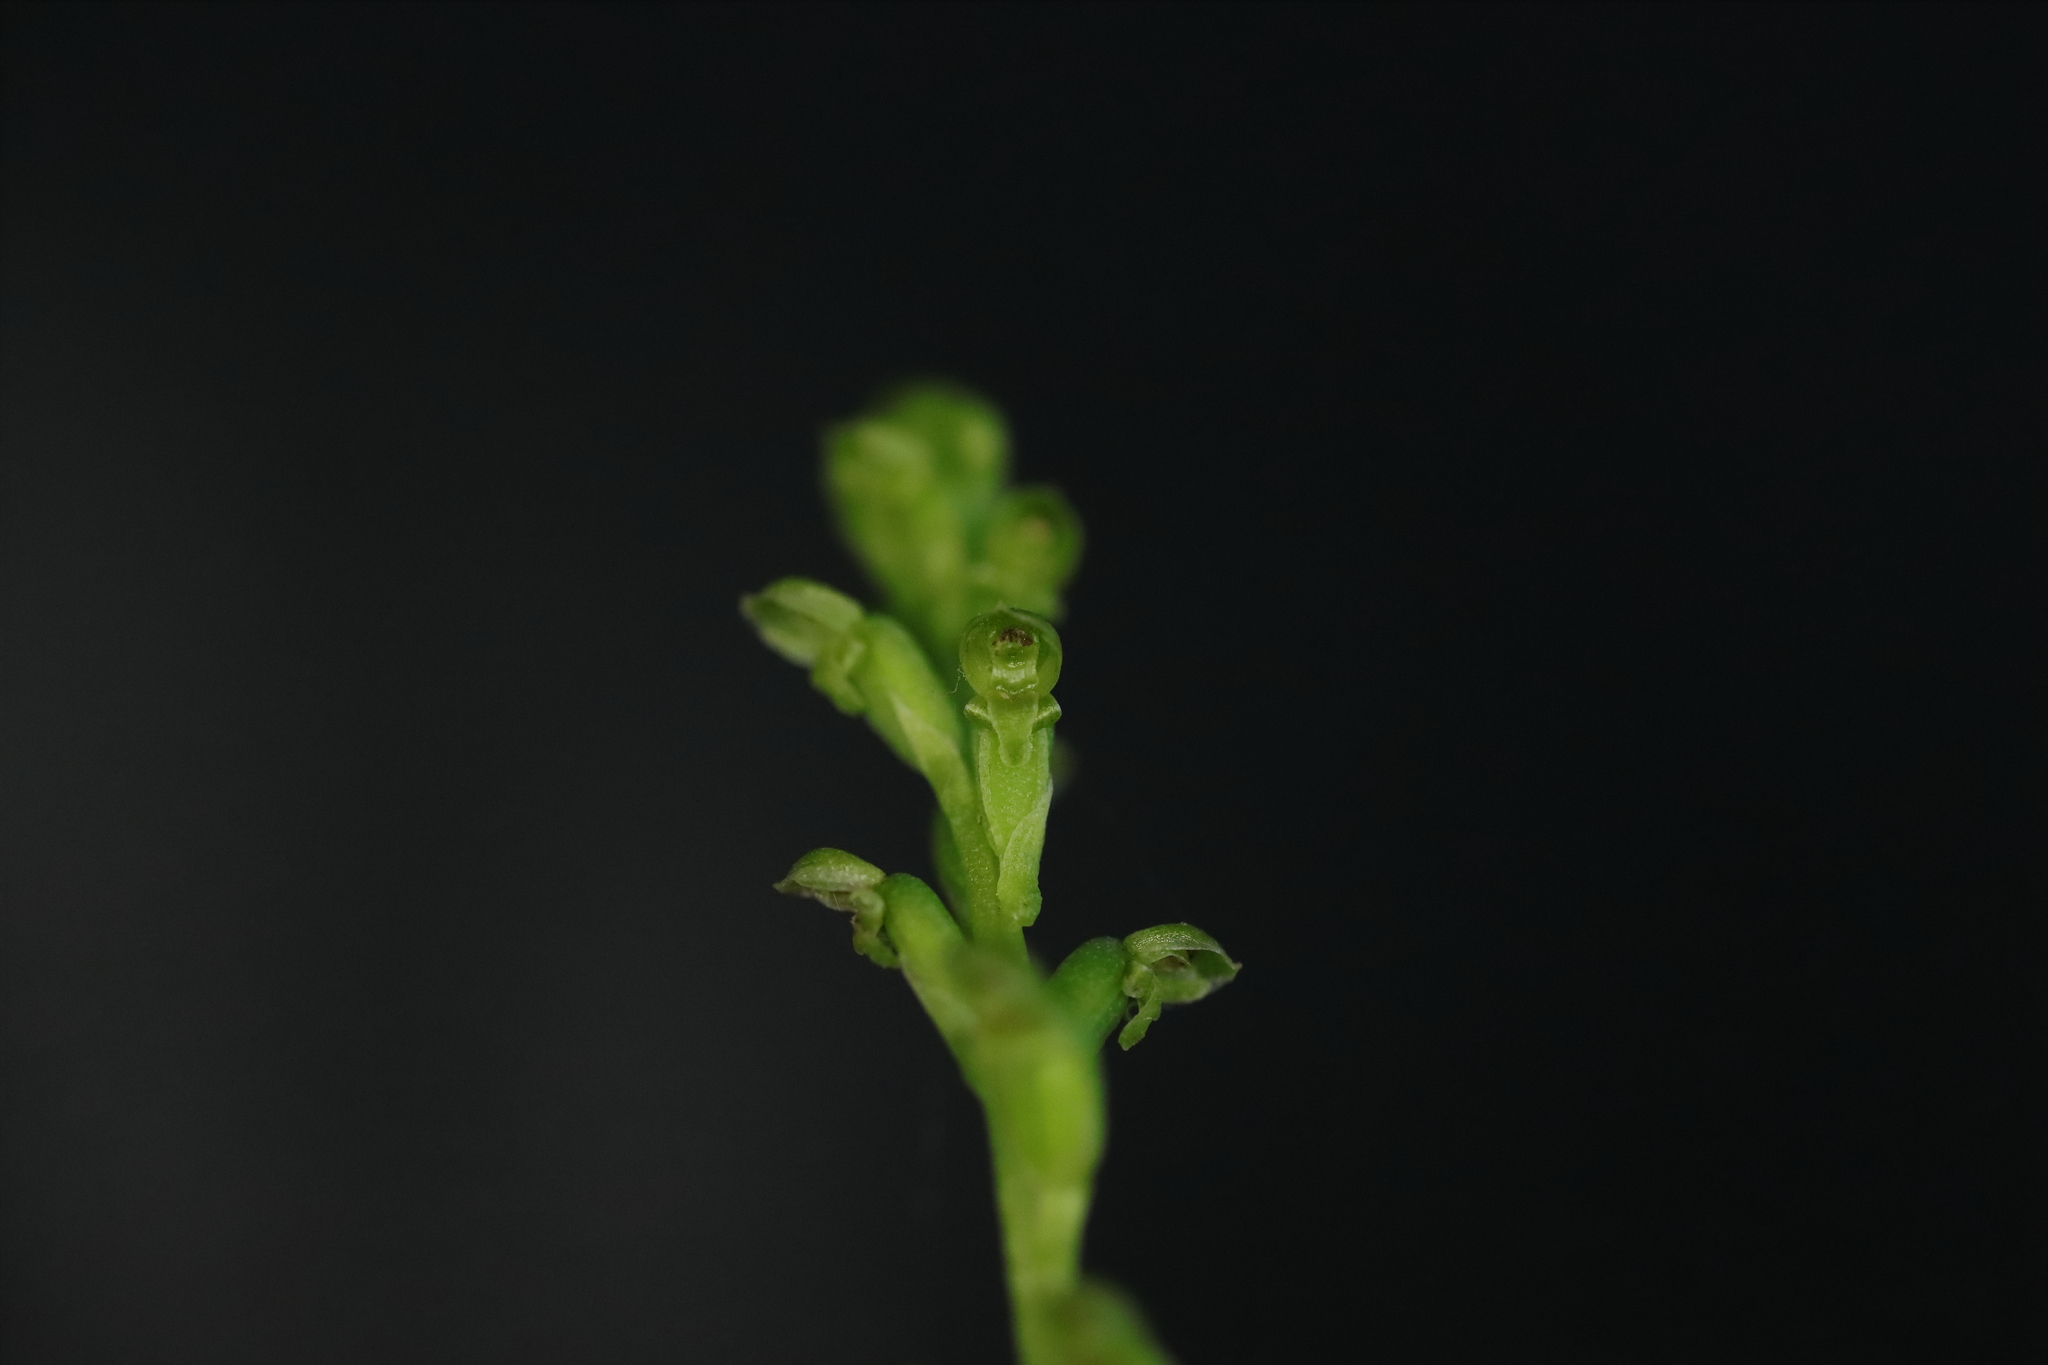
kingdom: Plantae
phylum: Tracheophyta
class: Liliopsida
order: Asparagales
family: Orchidaceae
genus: Microtis
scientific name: Microtis parviflora
